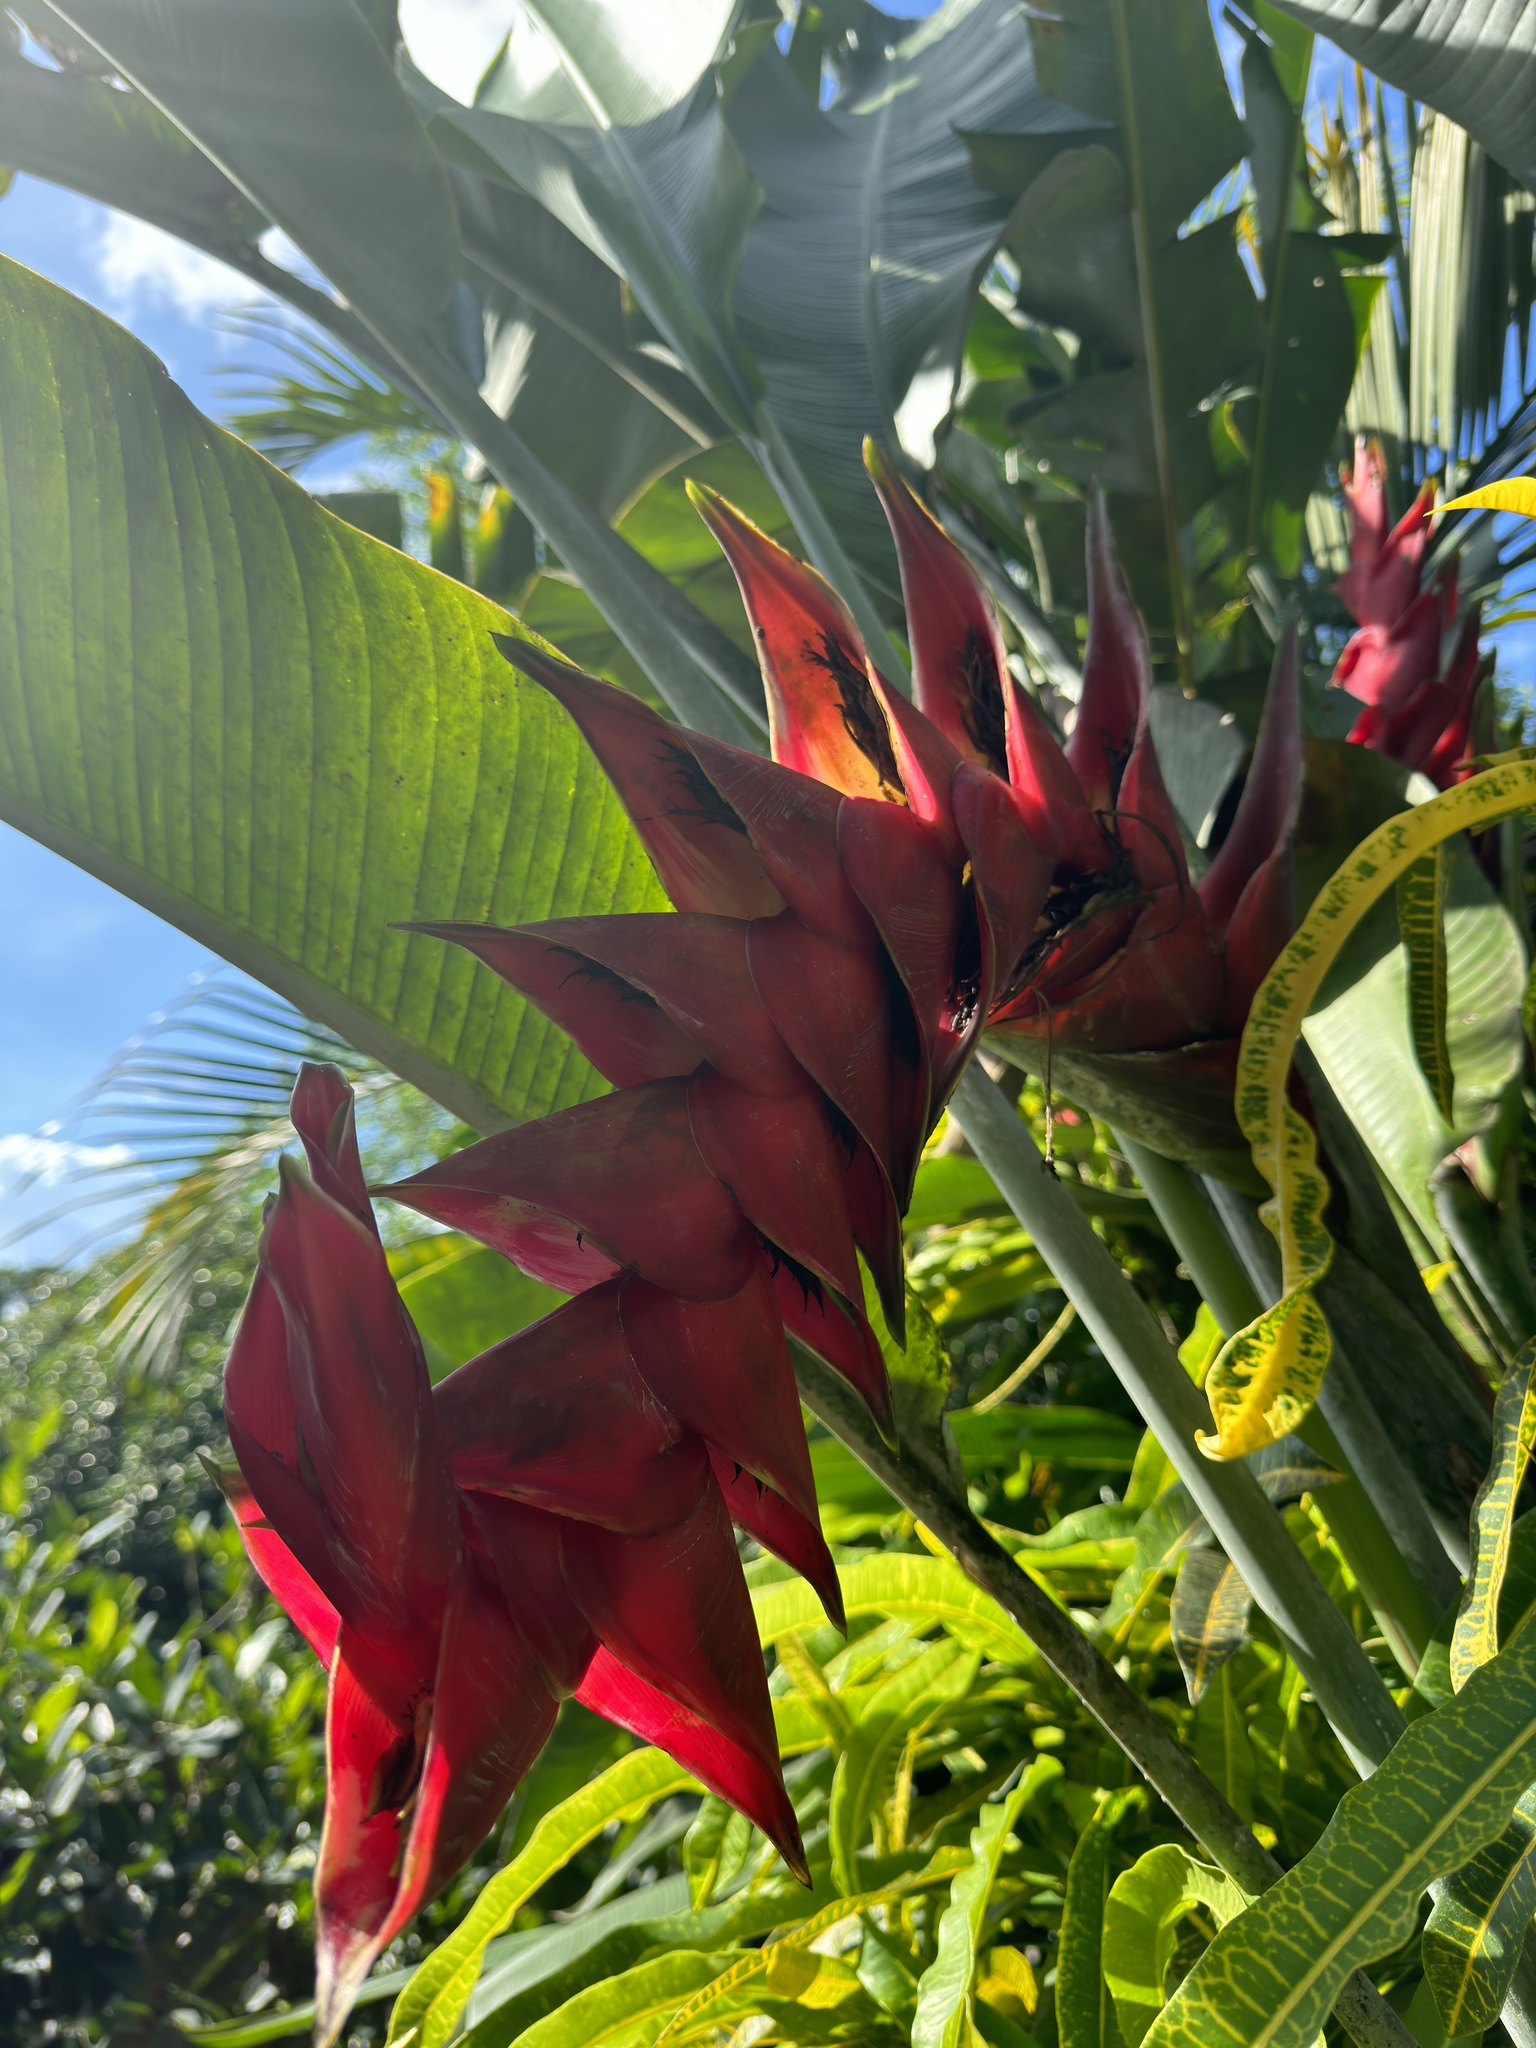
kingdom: Plantae
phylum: Tracheophyta
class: Liliopsida
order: Zingiberales
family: Heliconiaceae
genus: Heliconia
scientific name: Heliconia caribaea
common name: Wild plantain
